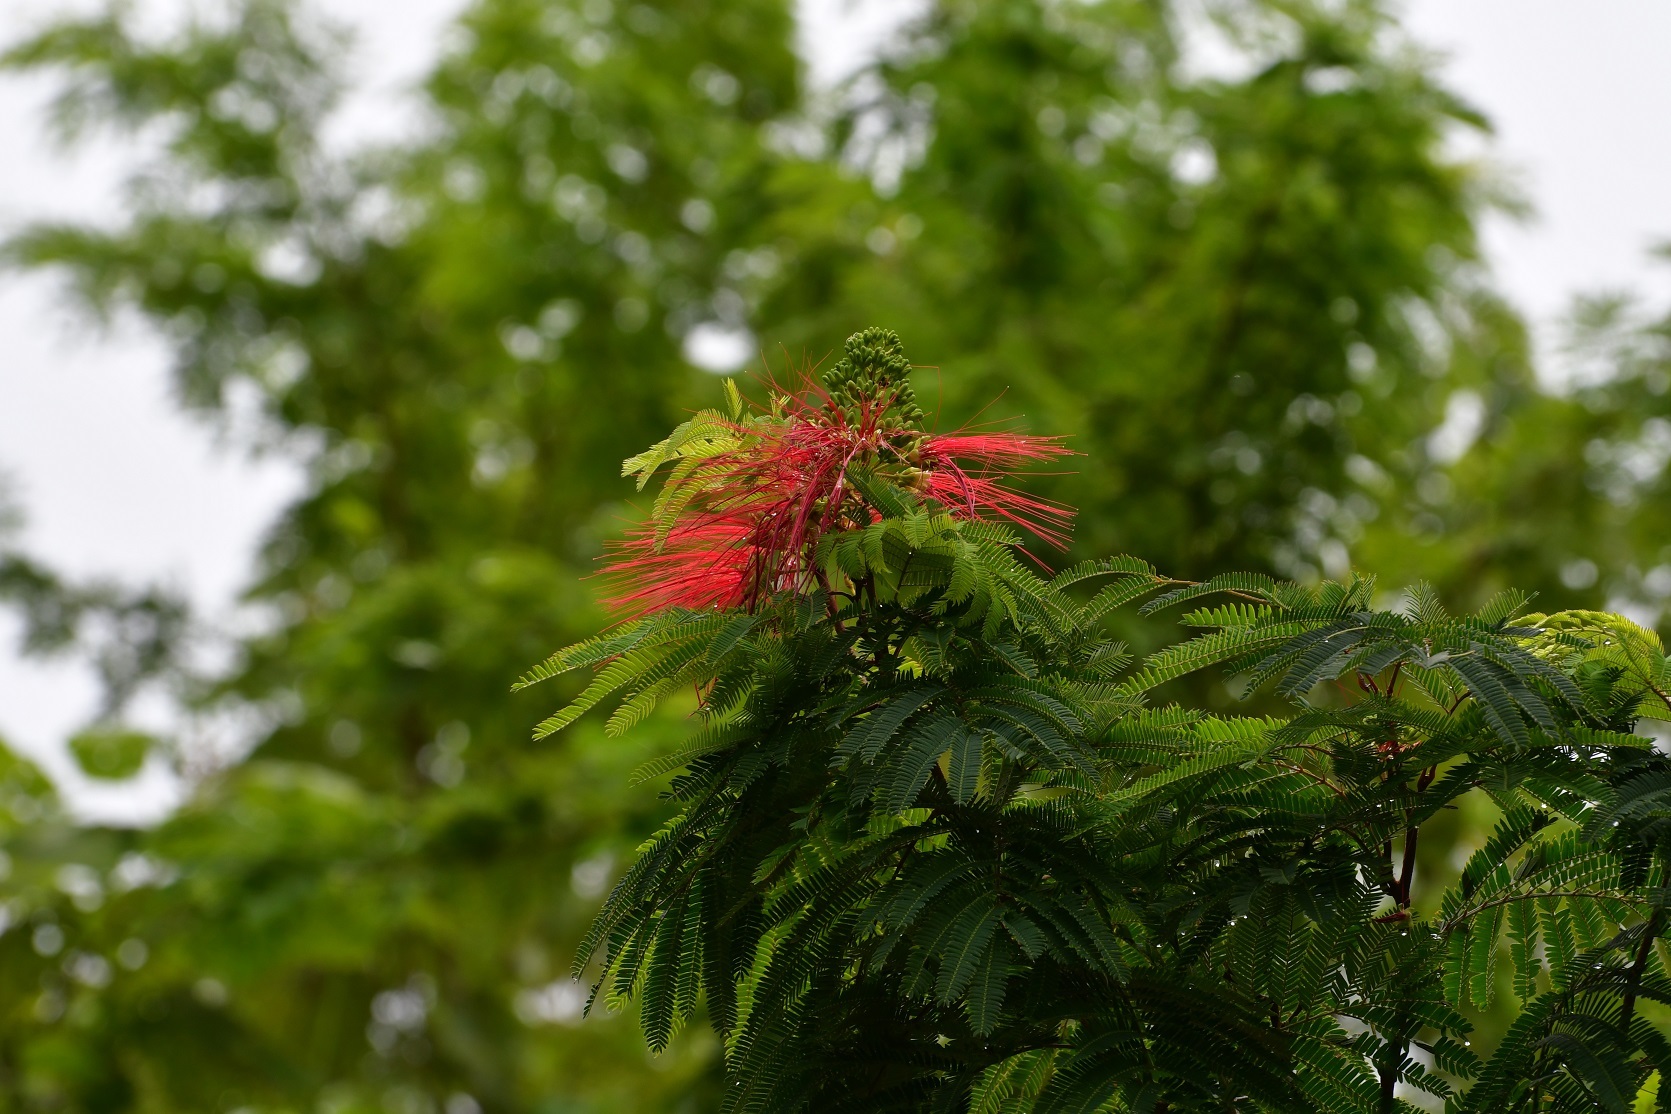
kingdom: Plantae
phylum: Tracheophyta
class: Magnoliopsida
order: Fabales
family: Fabaceae
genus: Calliandra
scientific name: Calliandra houstoniana
